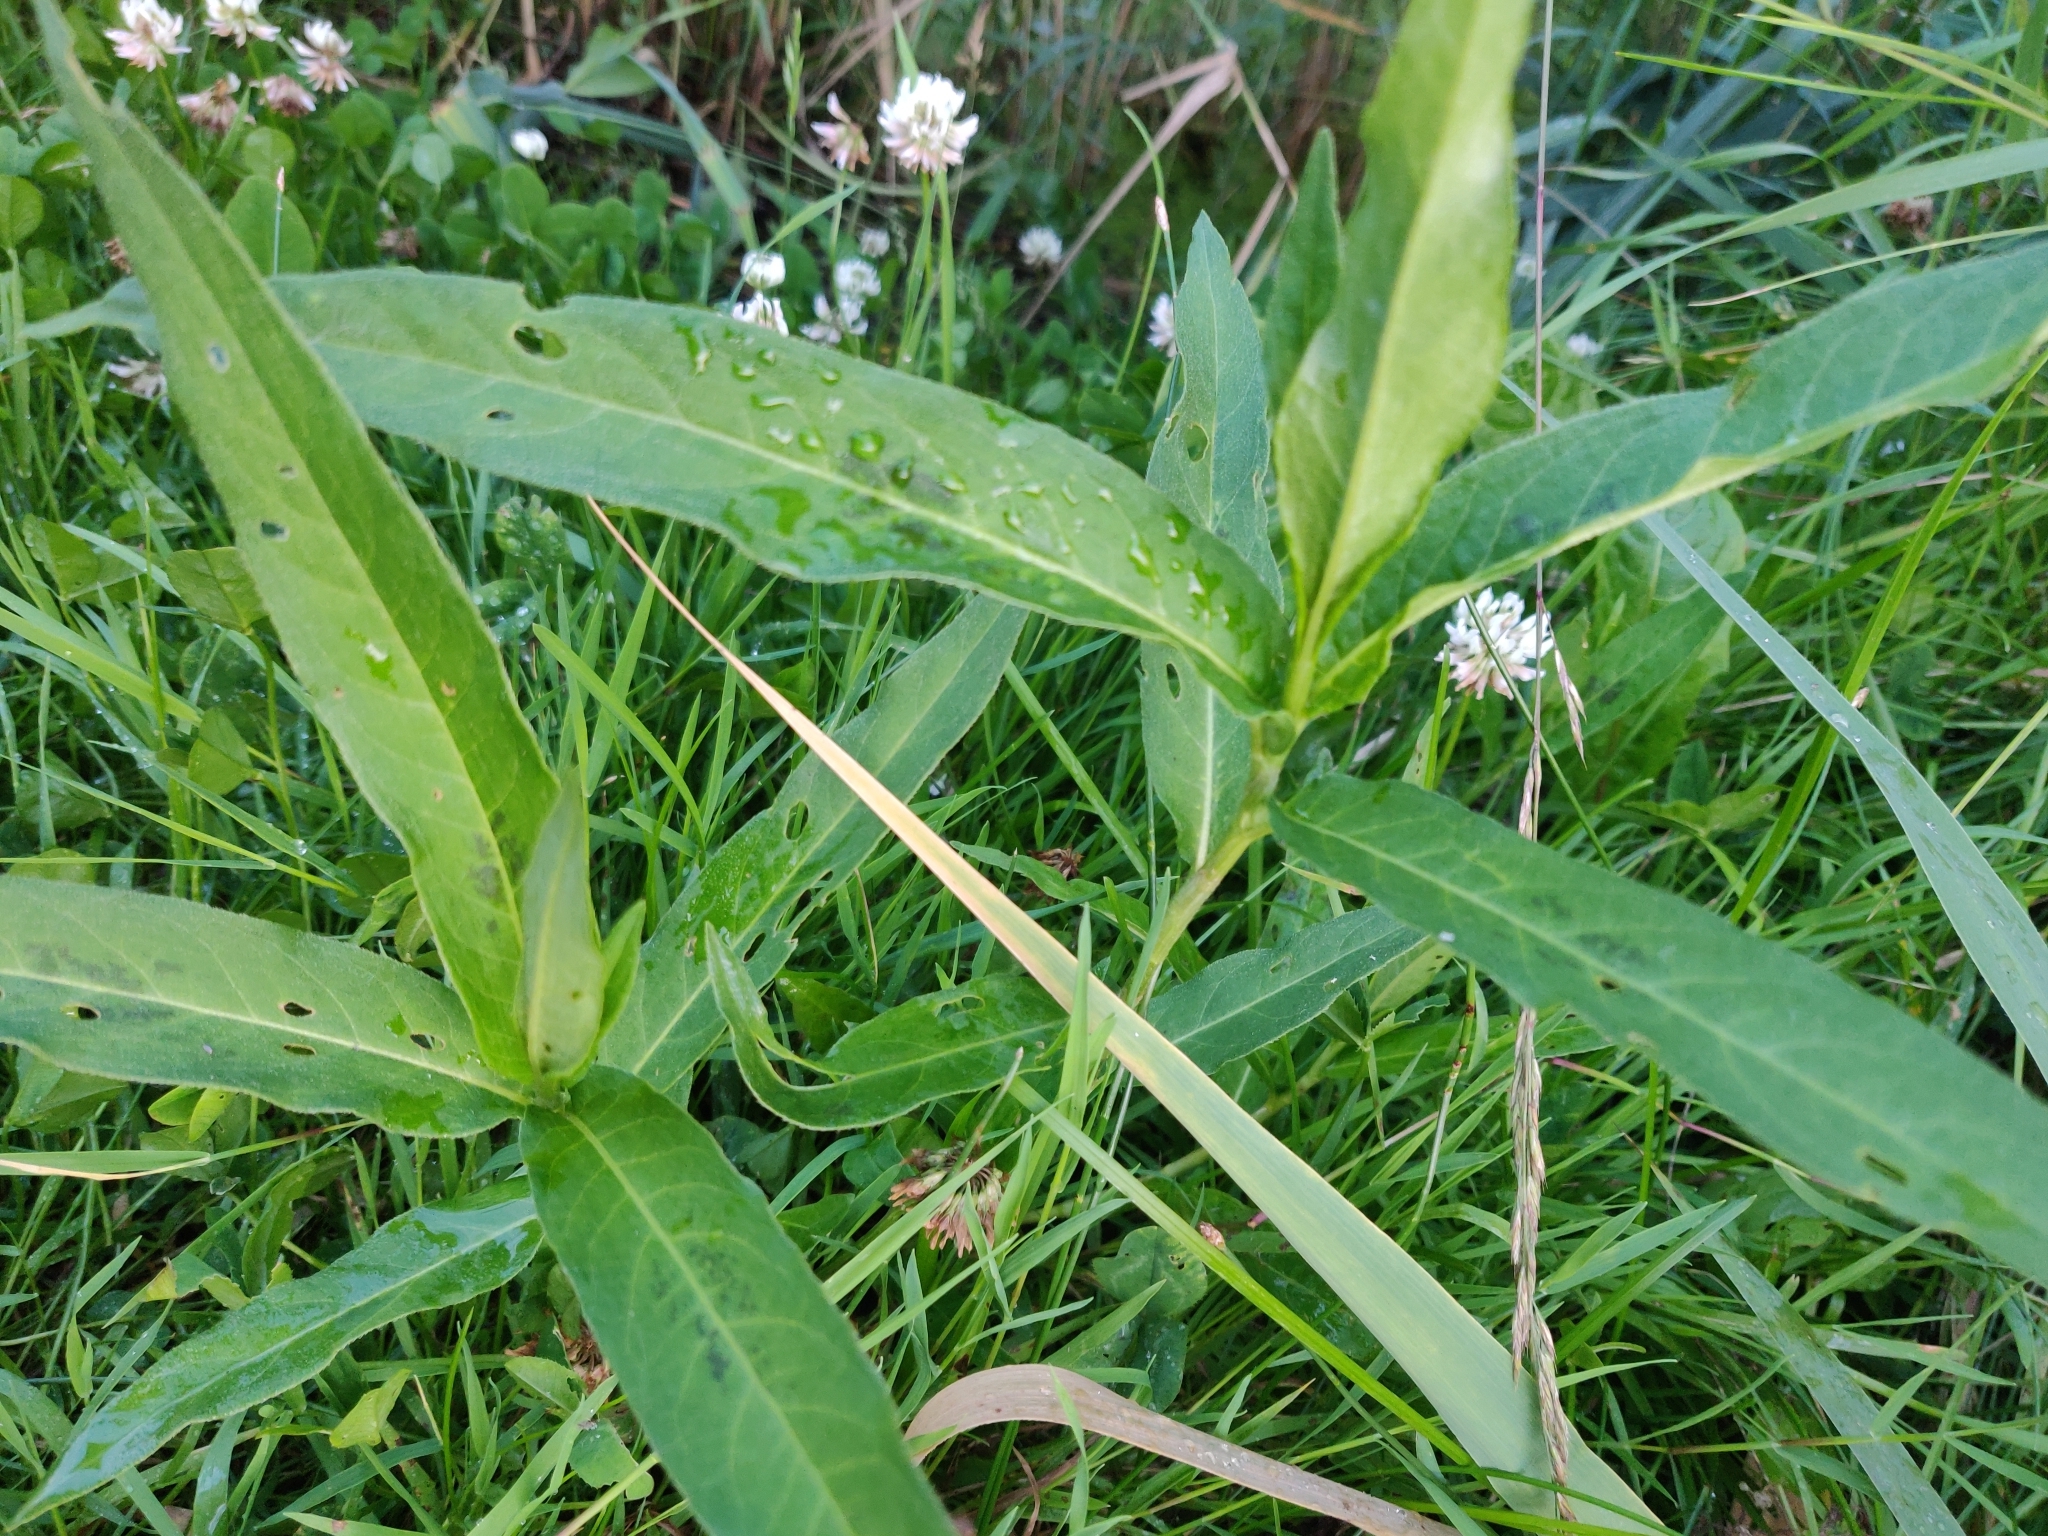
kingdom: Plantae
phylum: Tracheophyta
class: Magnoliopsida
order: Caryophyllales
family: Polygonaceae
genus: Persicaria
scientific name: Persicaria amphibia
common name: Amphibious bistort
